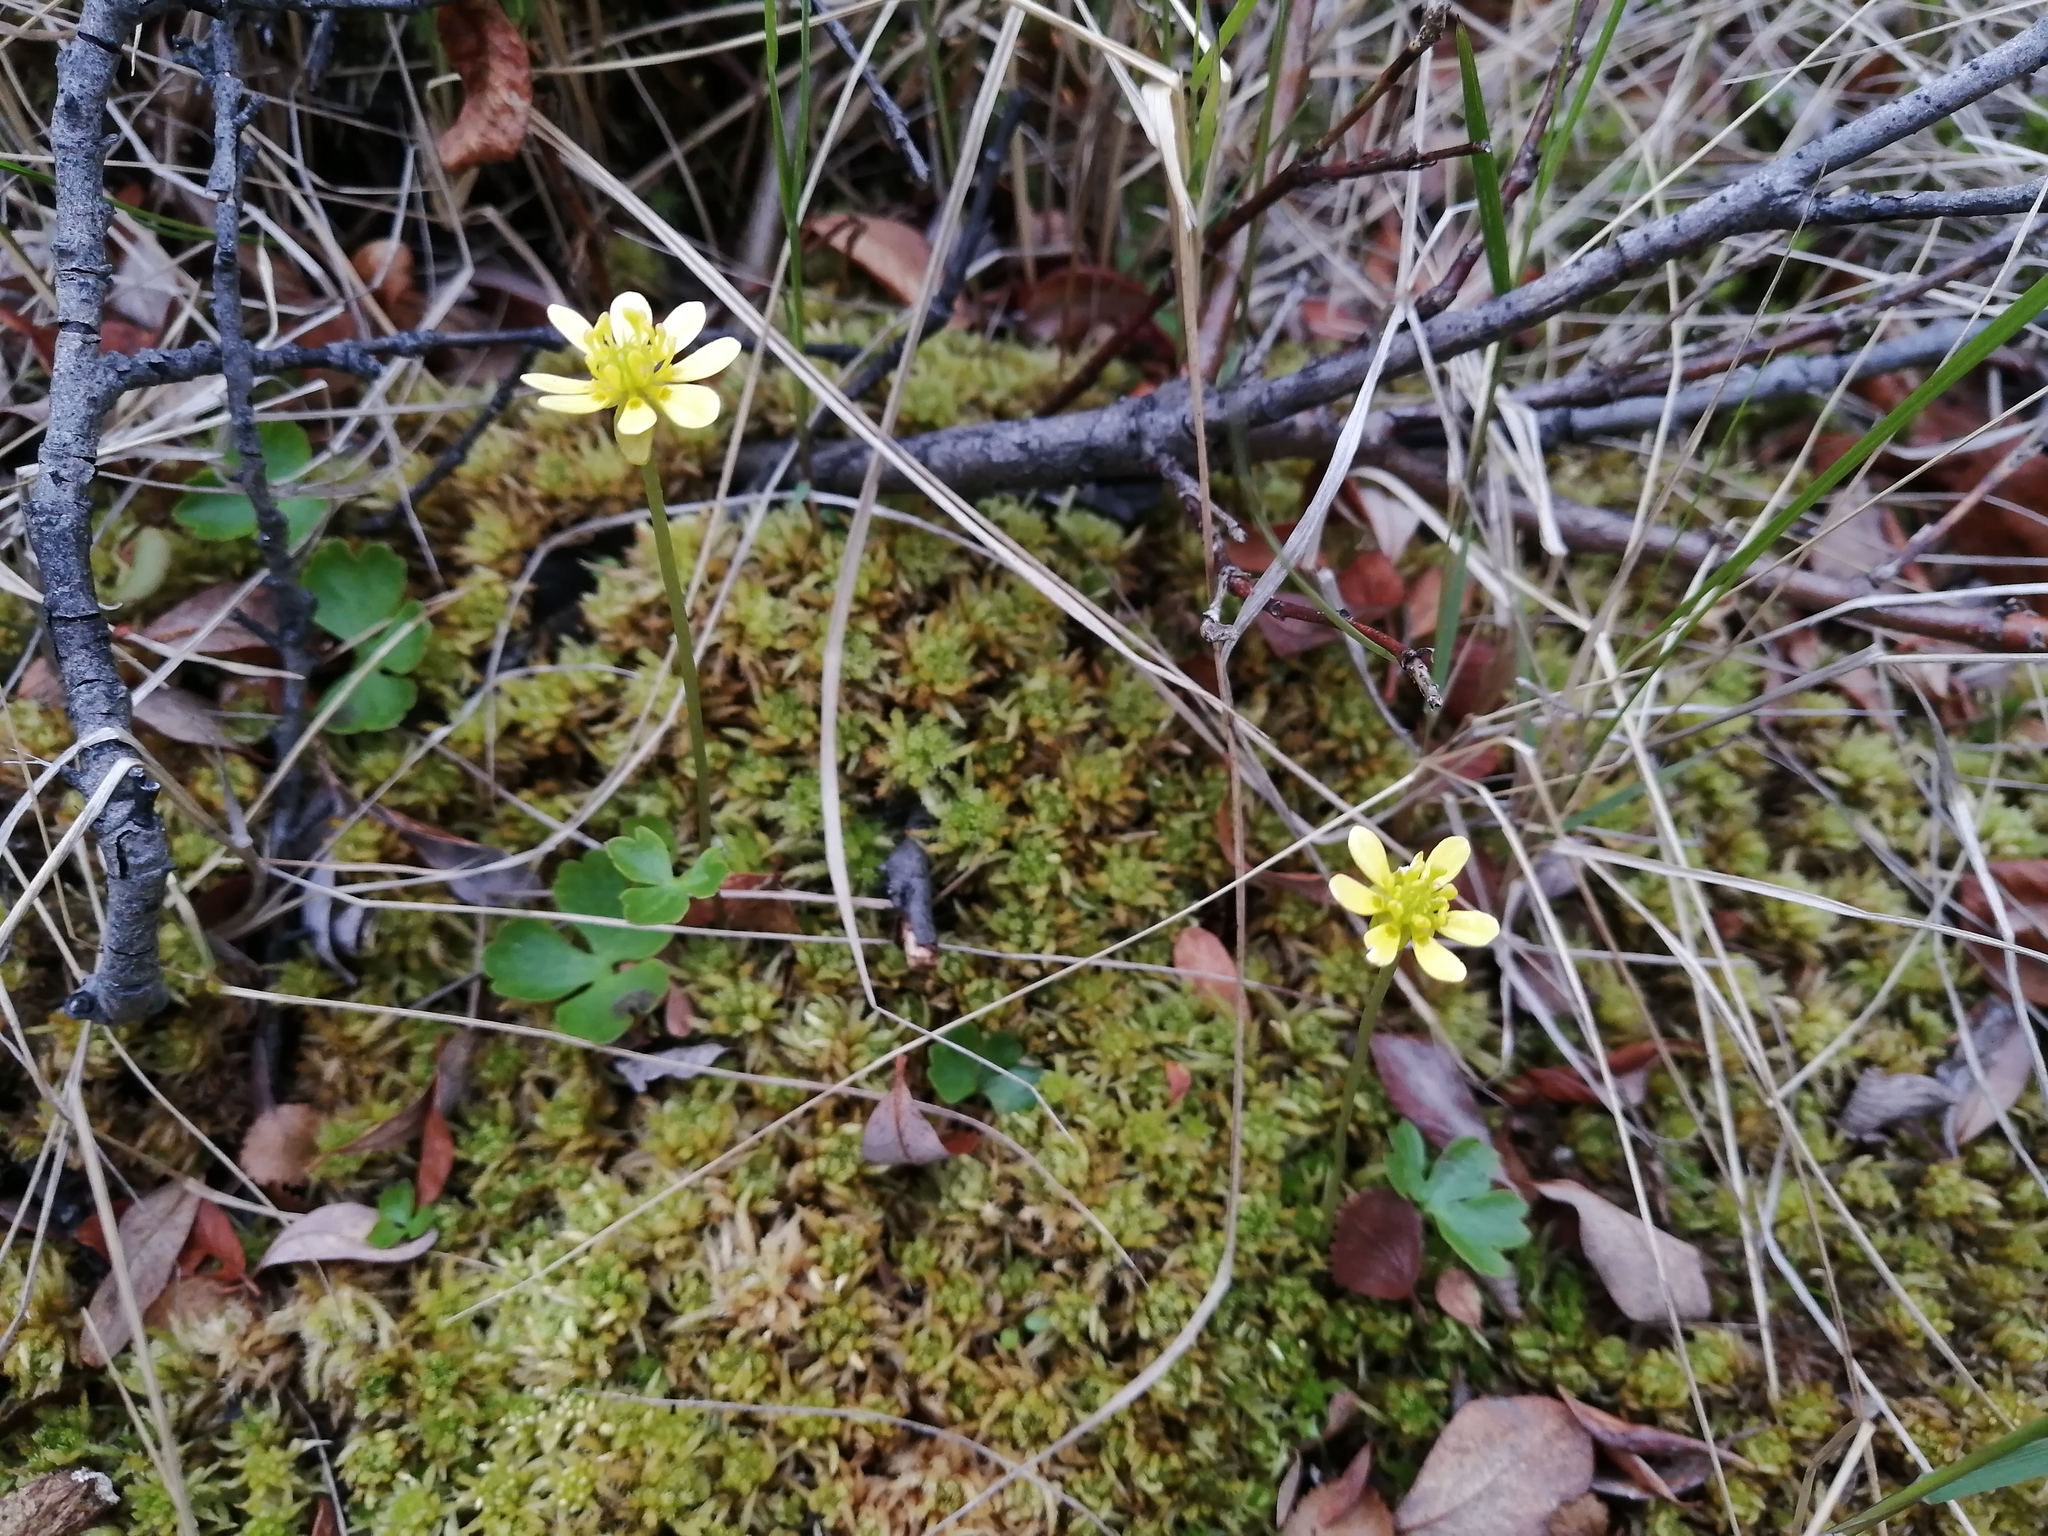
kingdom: Plantae
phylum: Tracheophyta
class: Magnoliopsida
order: Ranunculales
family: Ranunculaceae
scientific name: Ranunculaceae
